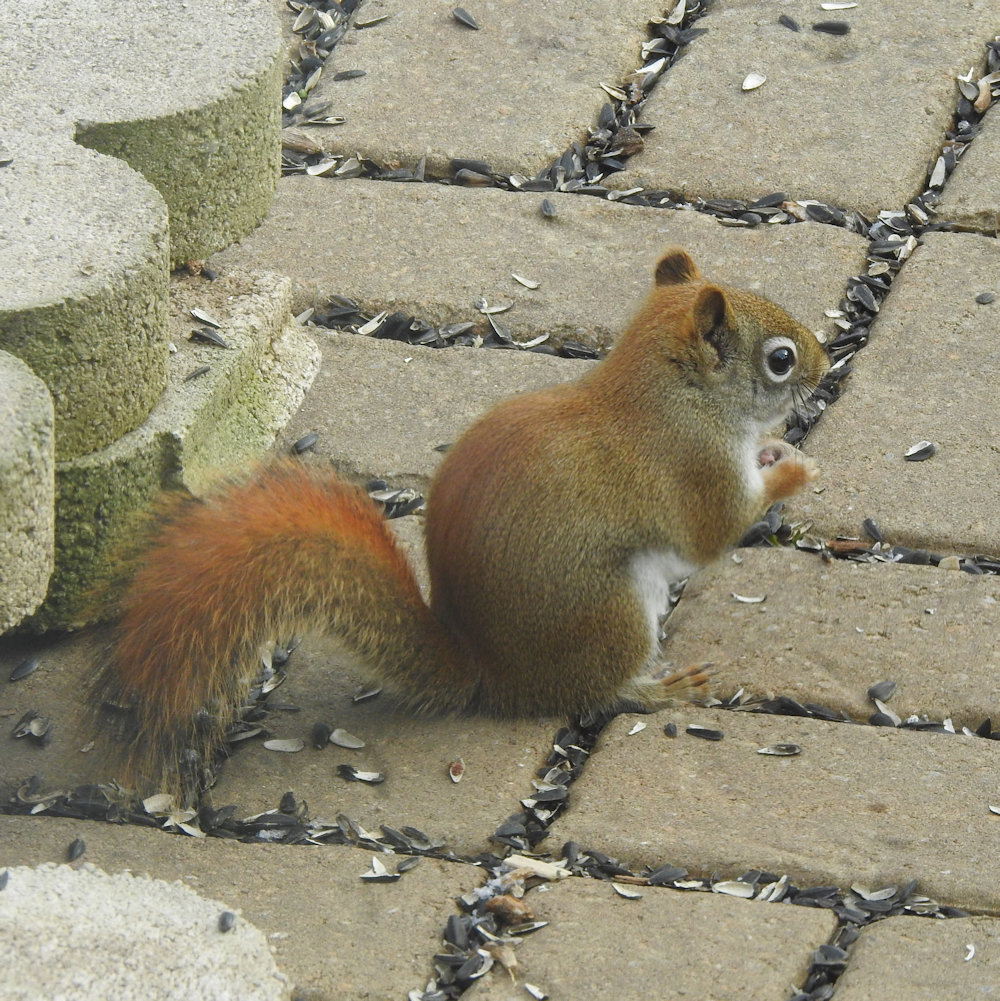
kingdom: Animalia
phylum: Chordata
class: Mammalia
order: Rodentia
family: Sciuridae
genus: Tamiasciurus
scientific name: Tamiasciurus hudsonicus
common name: Red squirrel
